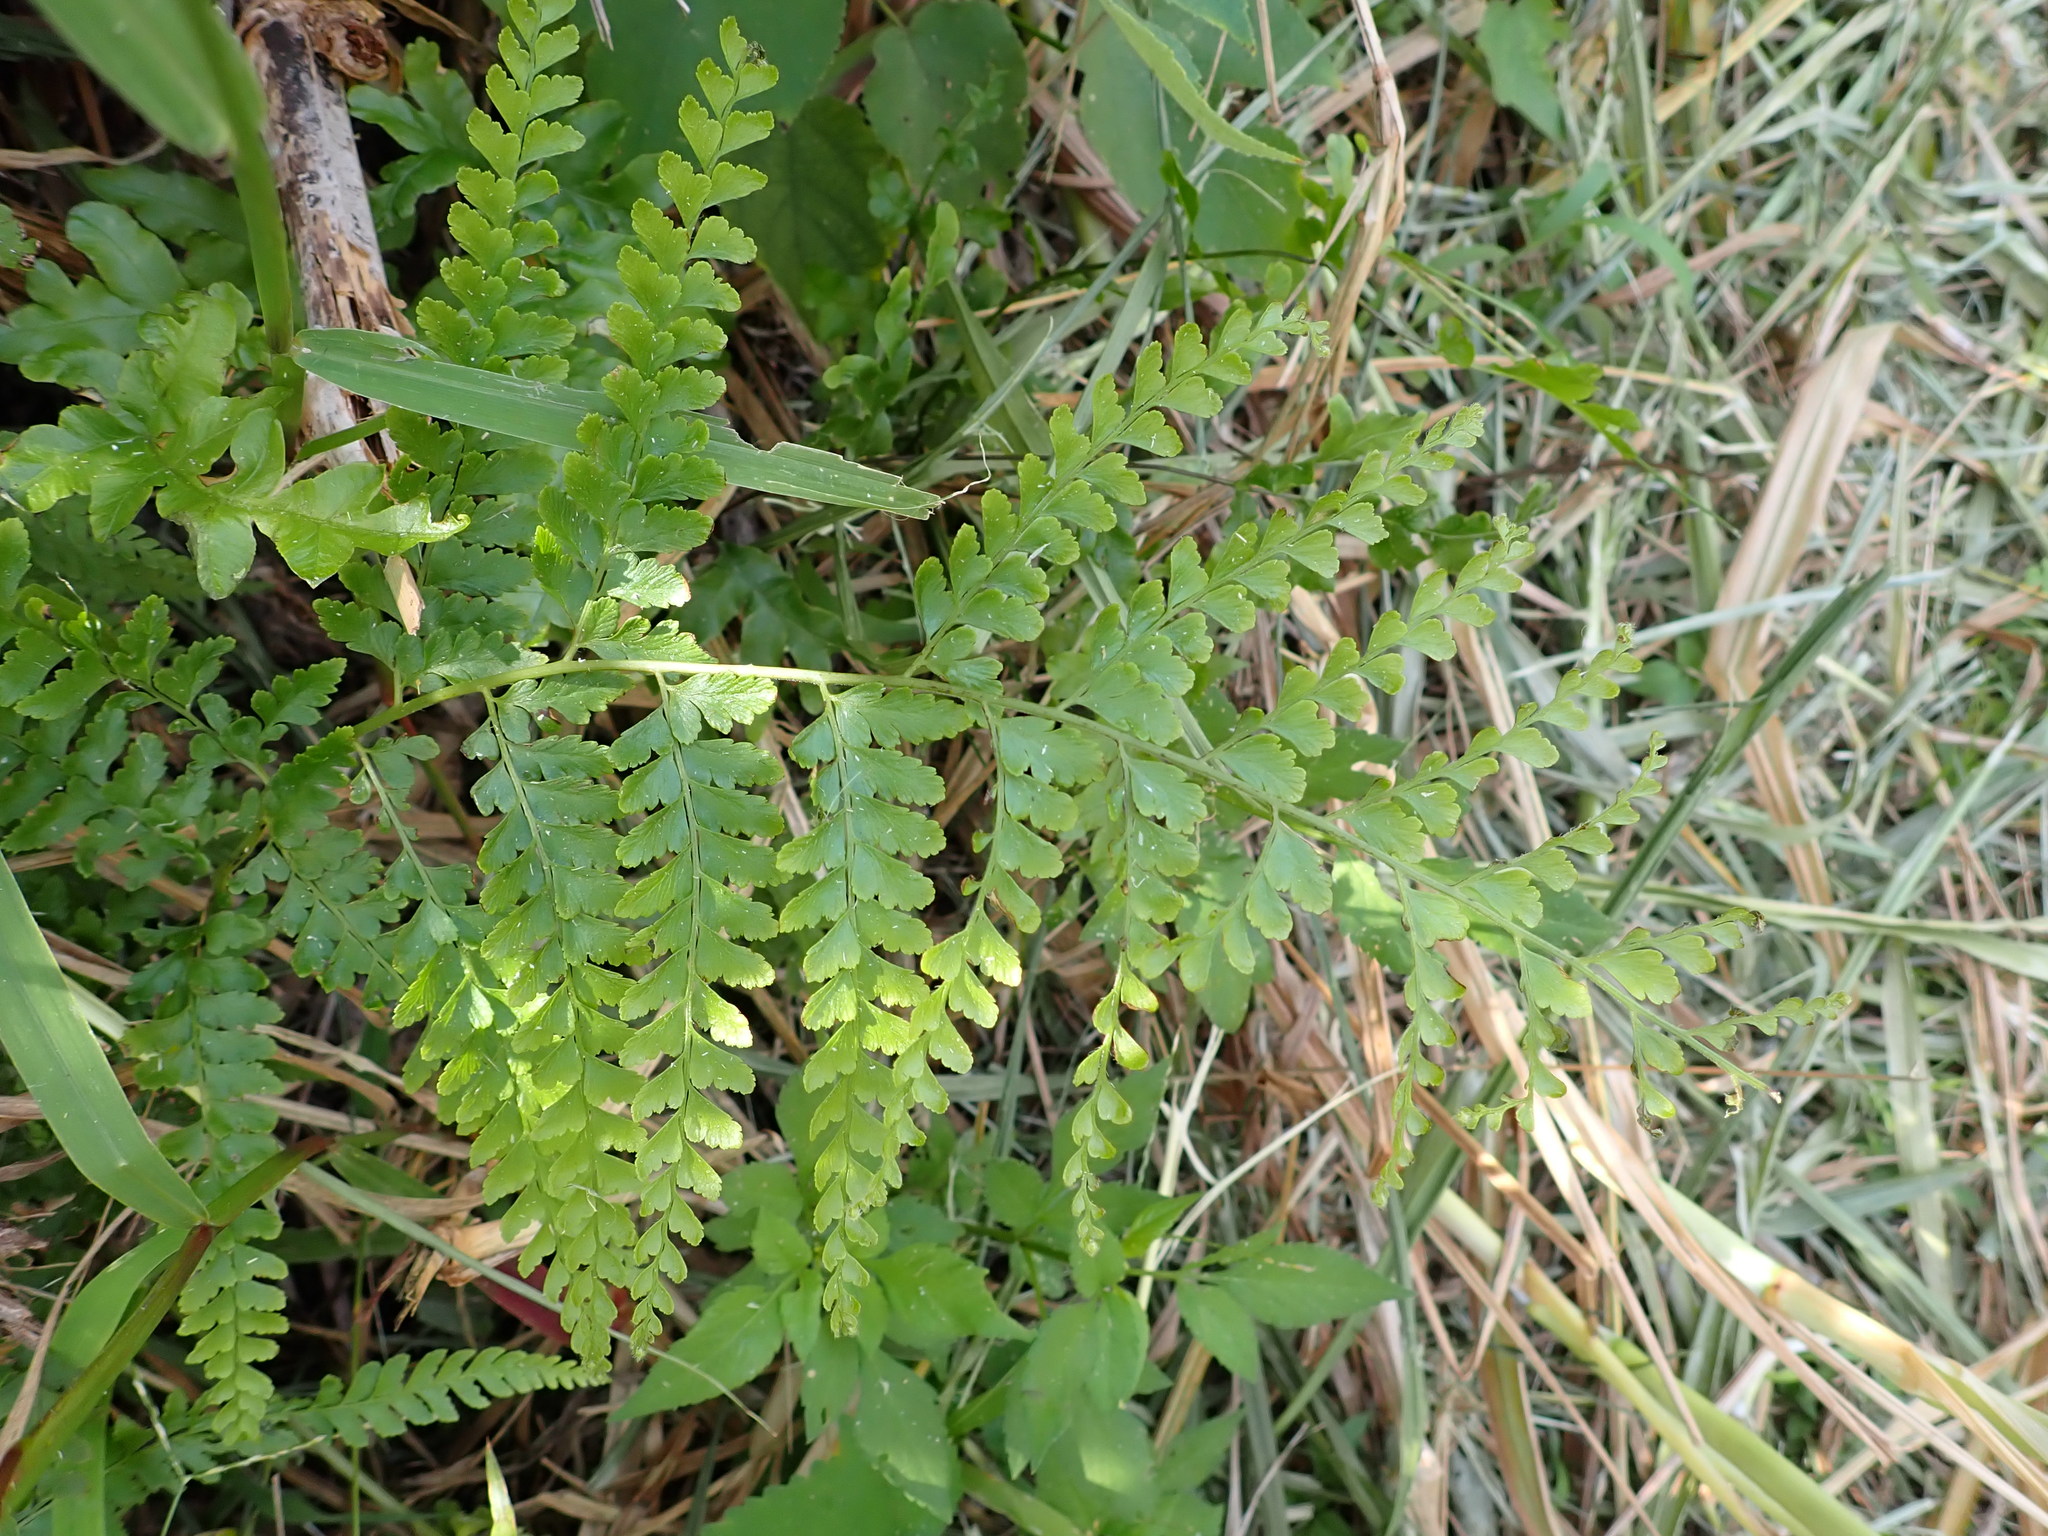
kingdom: Plantae
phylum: Tracheophyta
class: Polypodiopsida
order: Polypodiales
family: Dennstaedtiaceae
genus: Microlepia
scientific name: Microlepia strigosa
